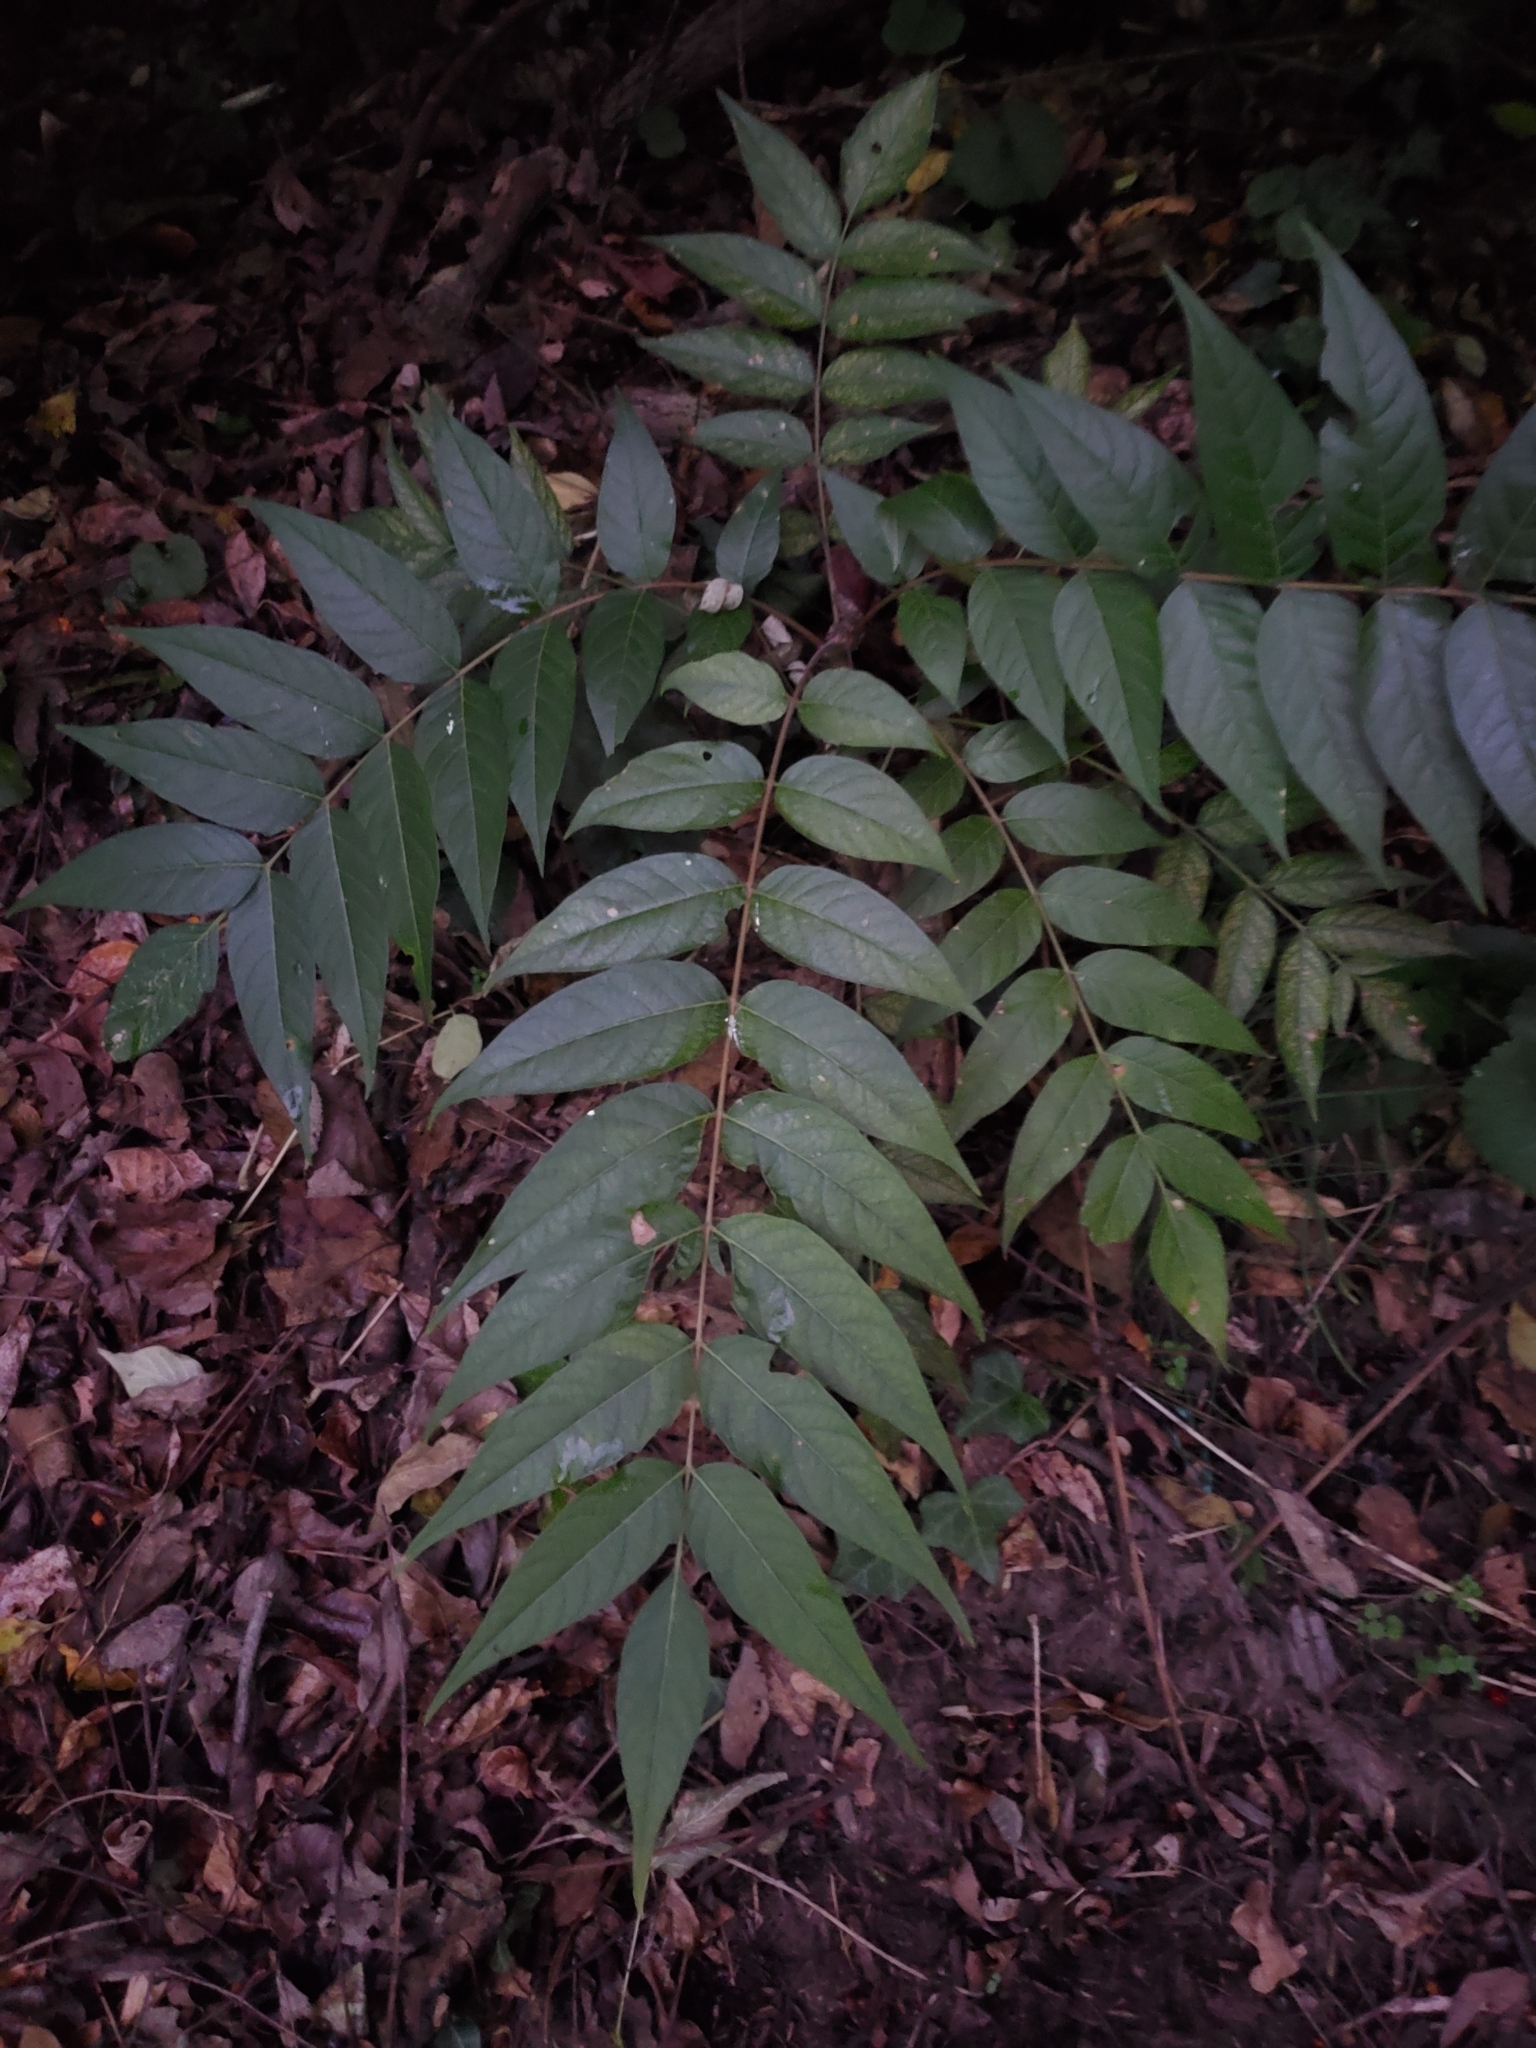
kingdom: Plantae
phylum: Tracheophyta
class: Magnoliopsida
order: Sapindales
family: Simaroubaceae
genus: Ailanthus
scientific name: Ailanthus altissima
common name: Tree-of-heaven
